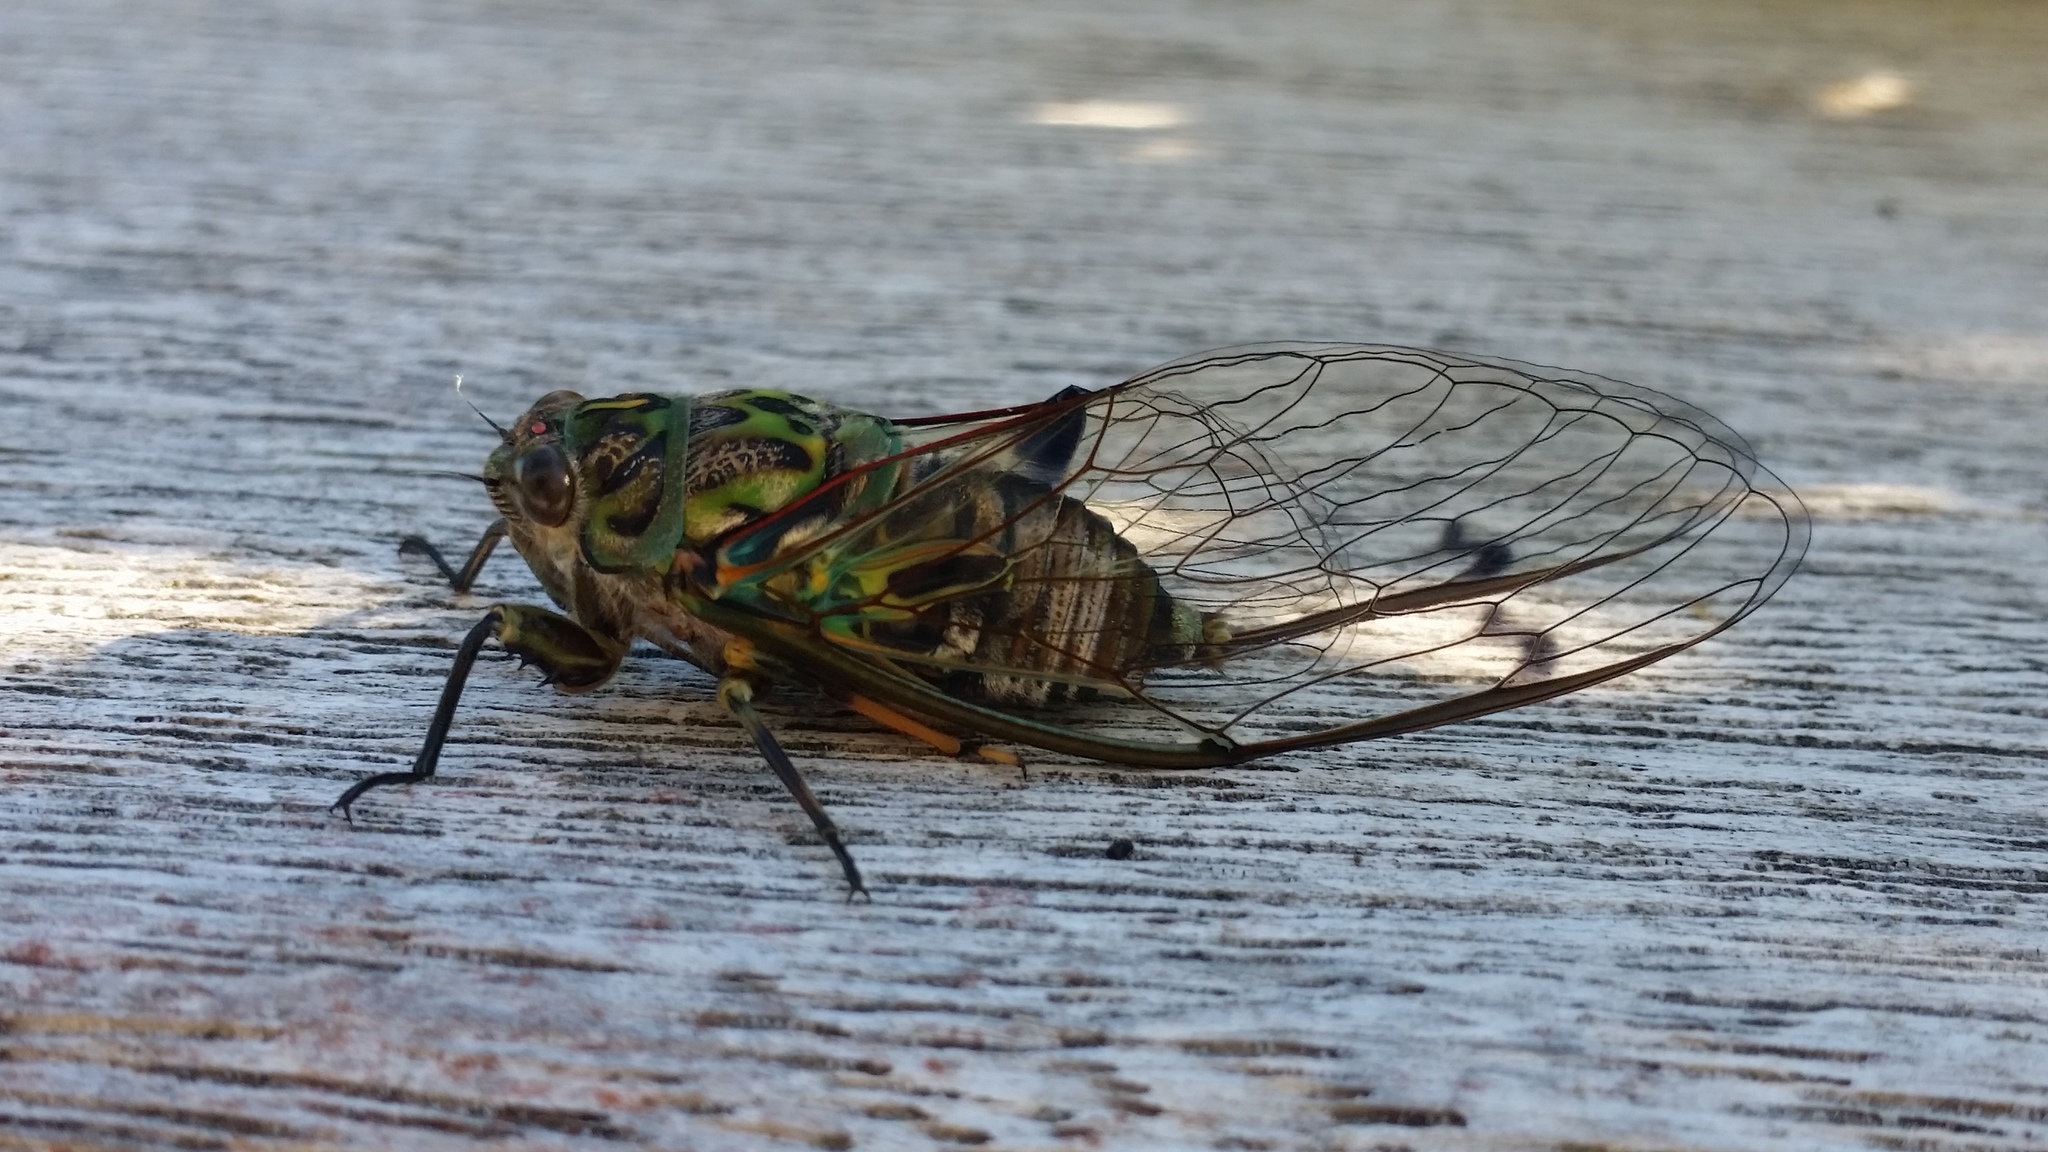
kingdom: Animalia
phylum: Arthropoda
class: Insecta
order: Hemiptera
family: Cicadidae
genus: Amphipsalta
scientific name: Amphipsalta zelandica
